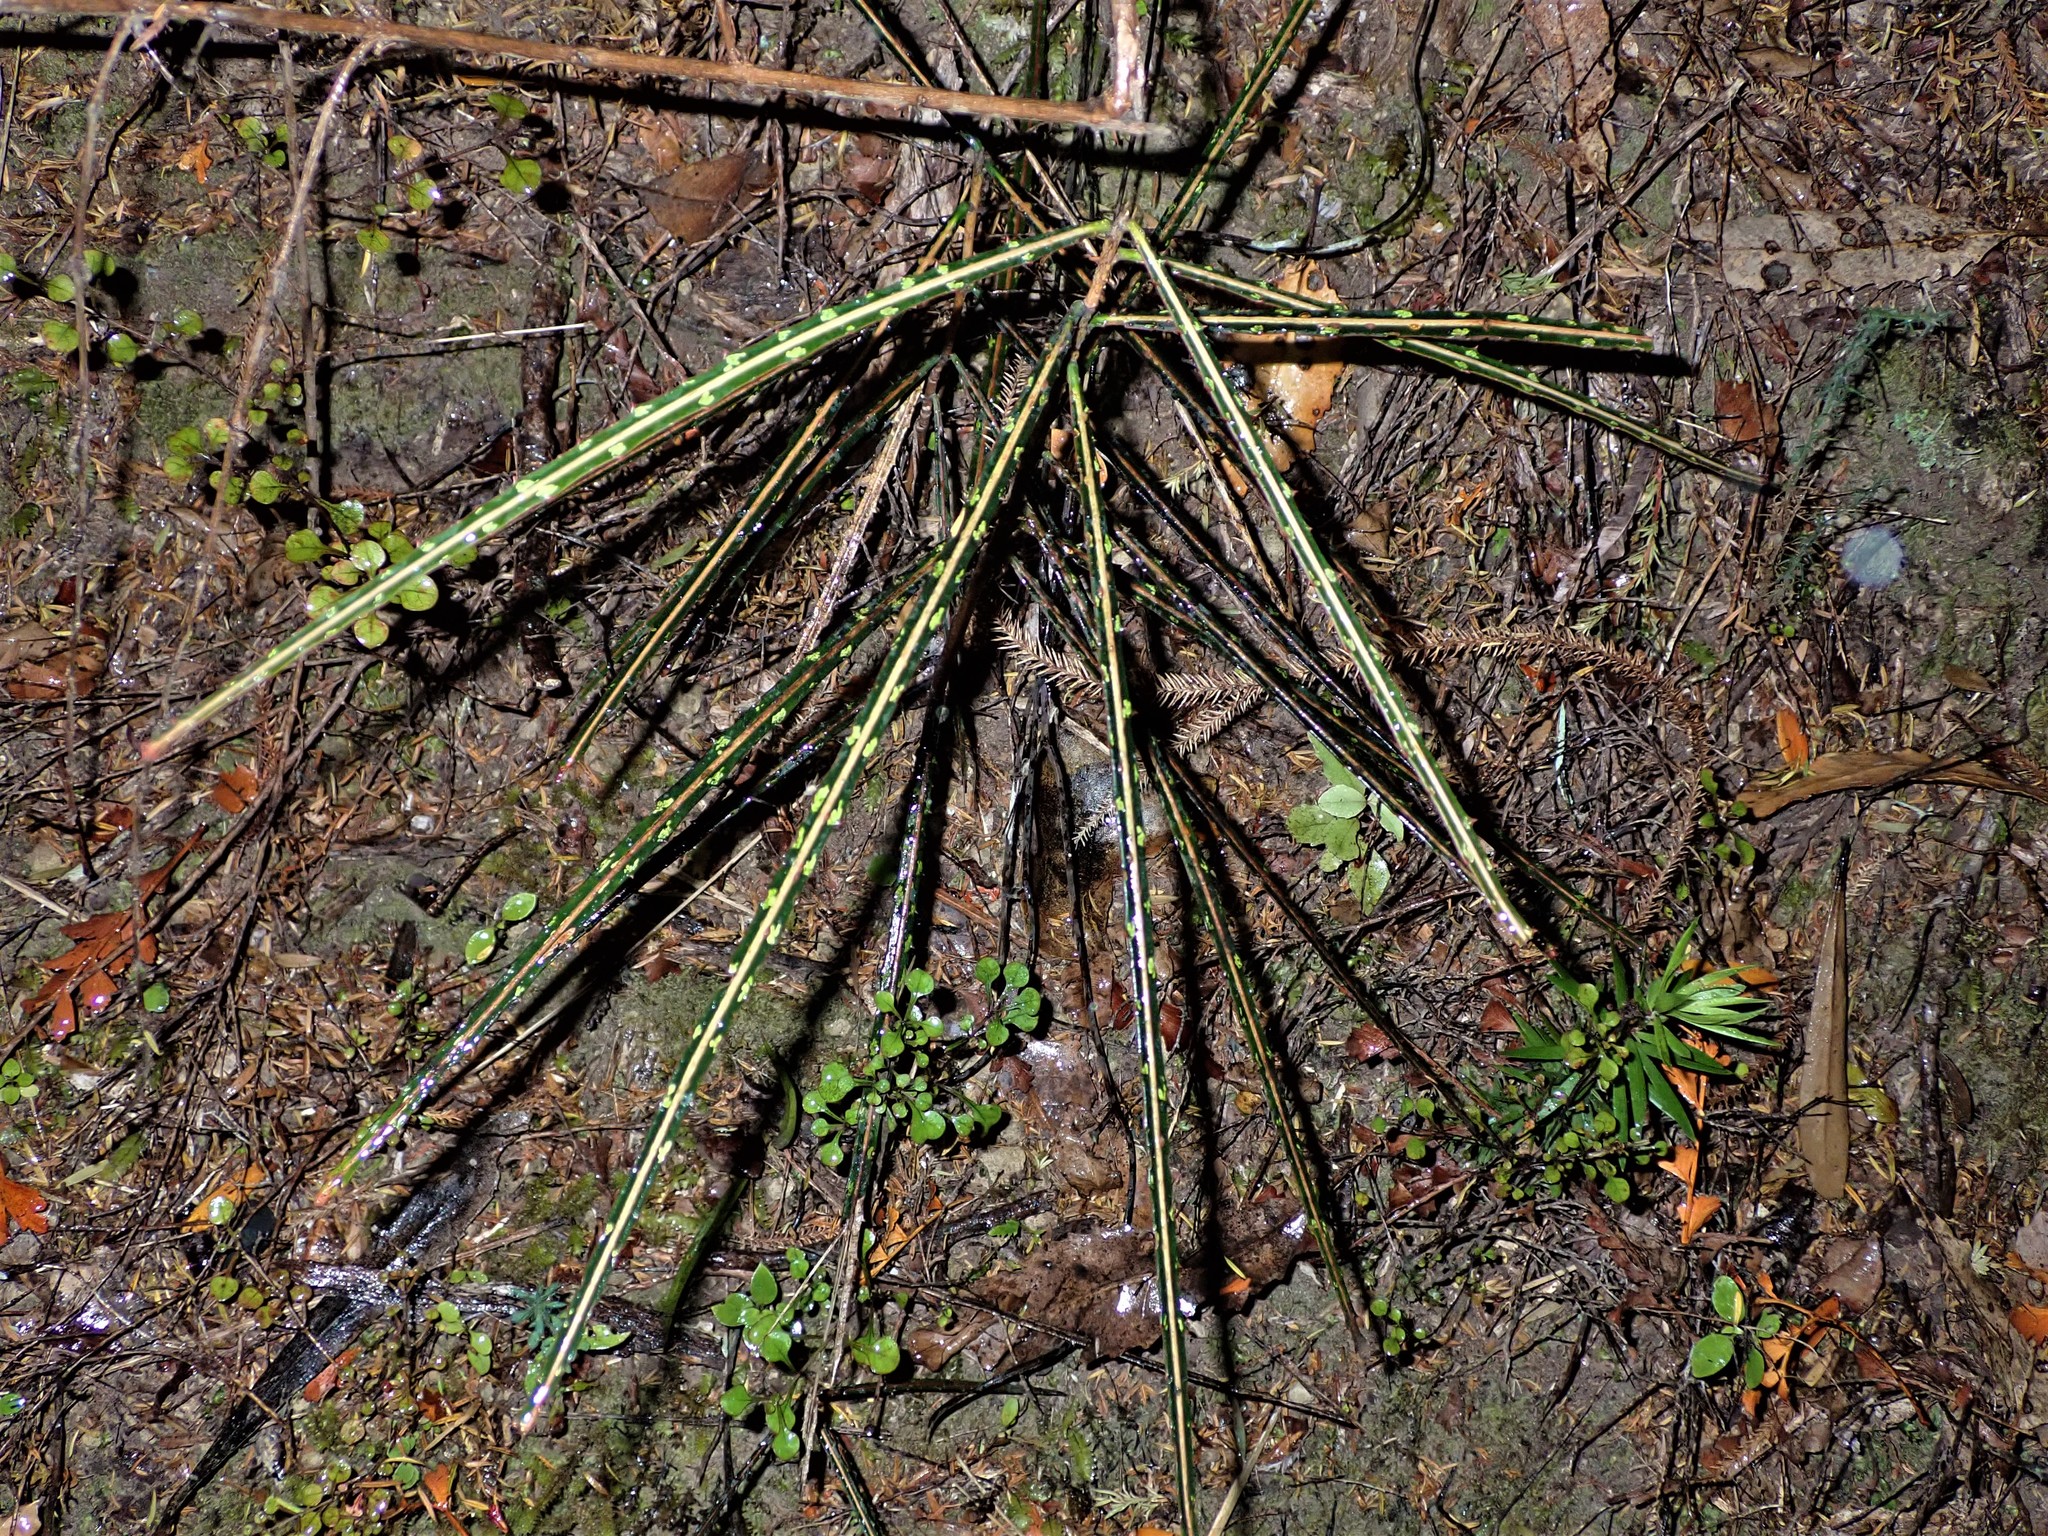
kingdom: Plantae
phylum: Tracheophyta
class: Magnoliopsida
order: Apiales
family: Araliaceae
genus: Pseudopanax
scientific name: Pseudopanax crassifolius
